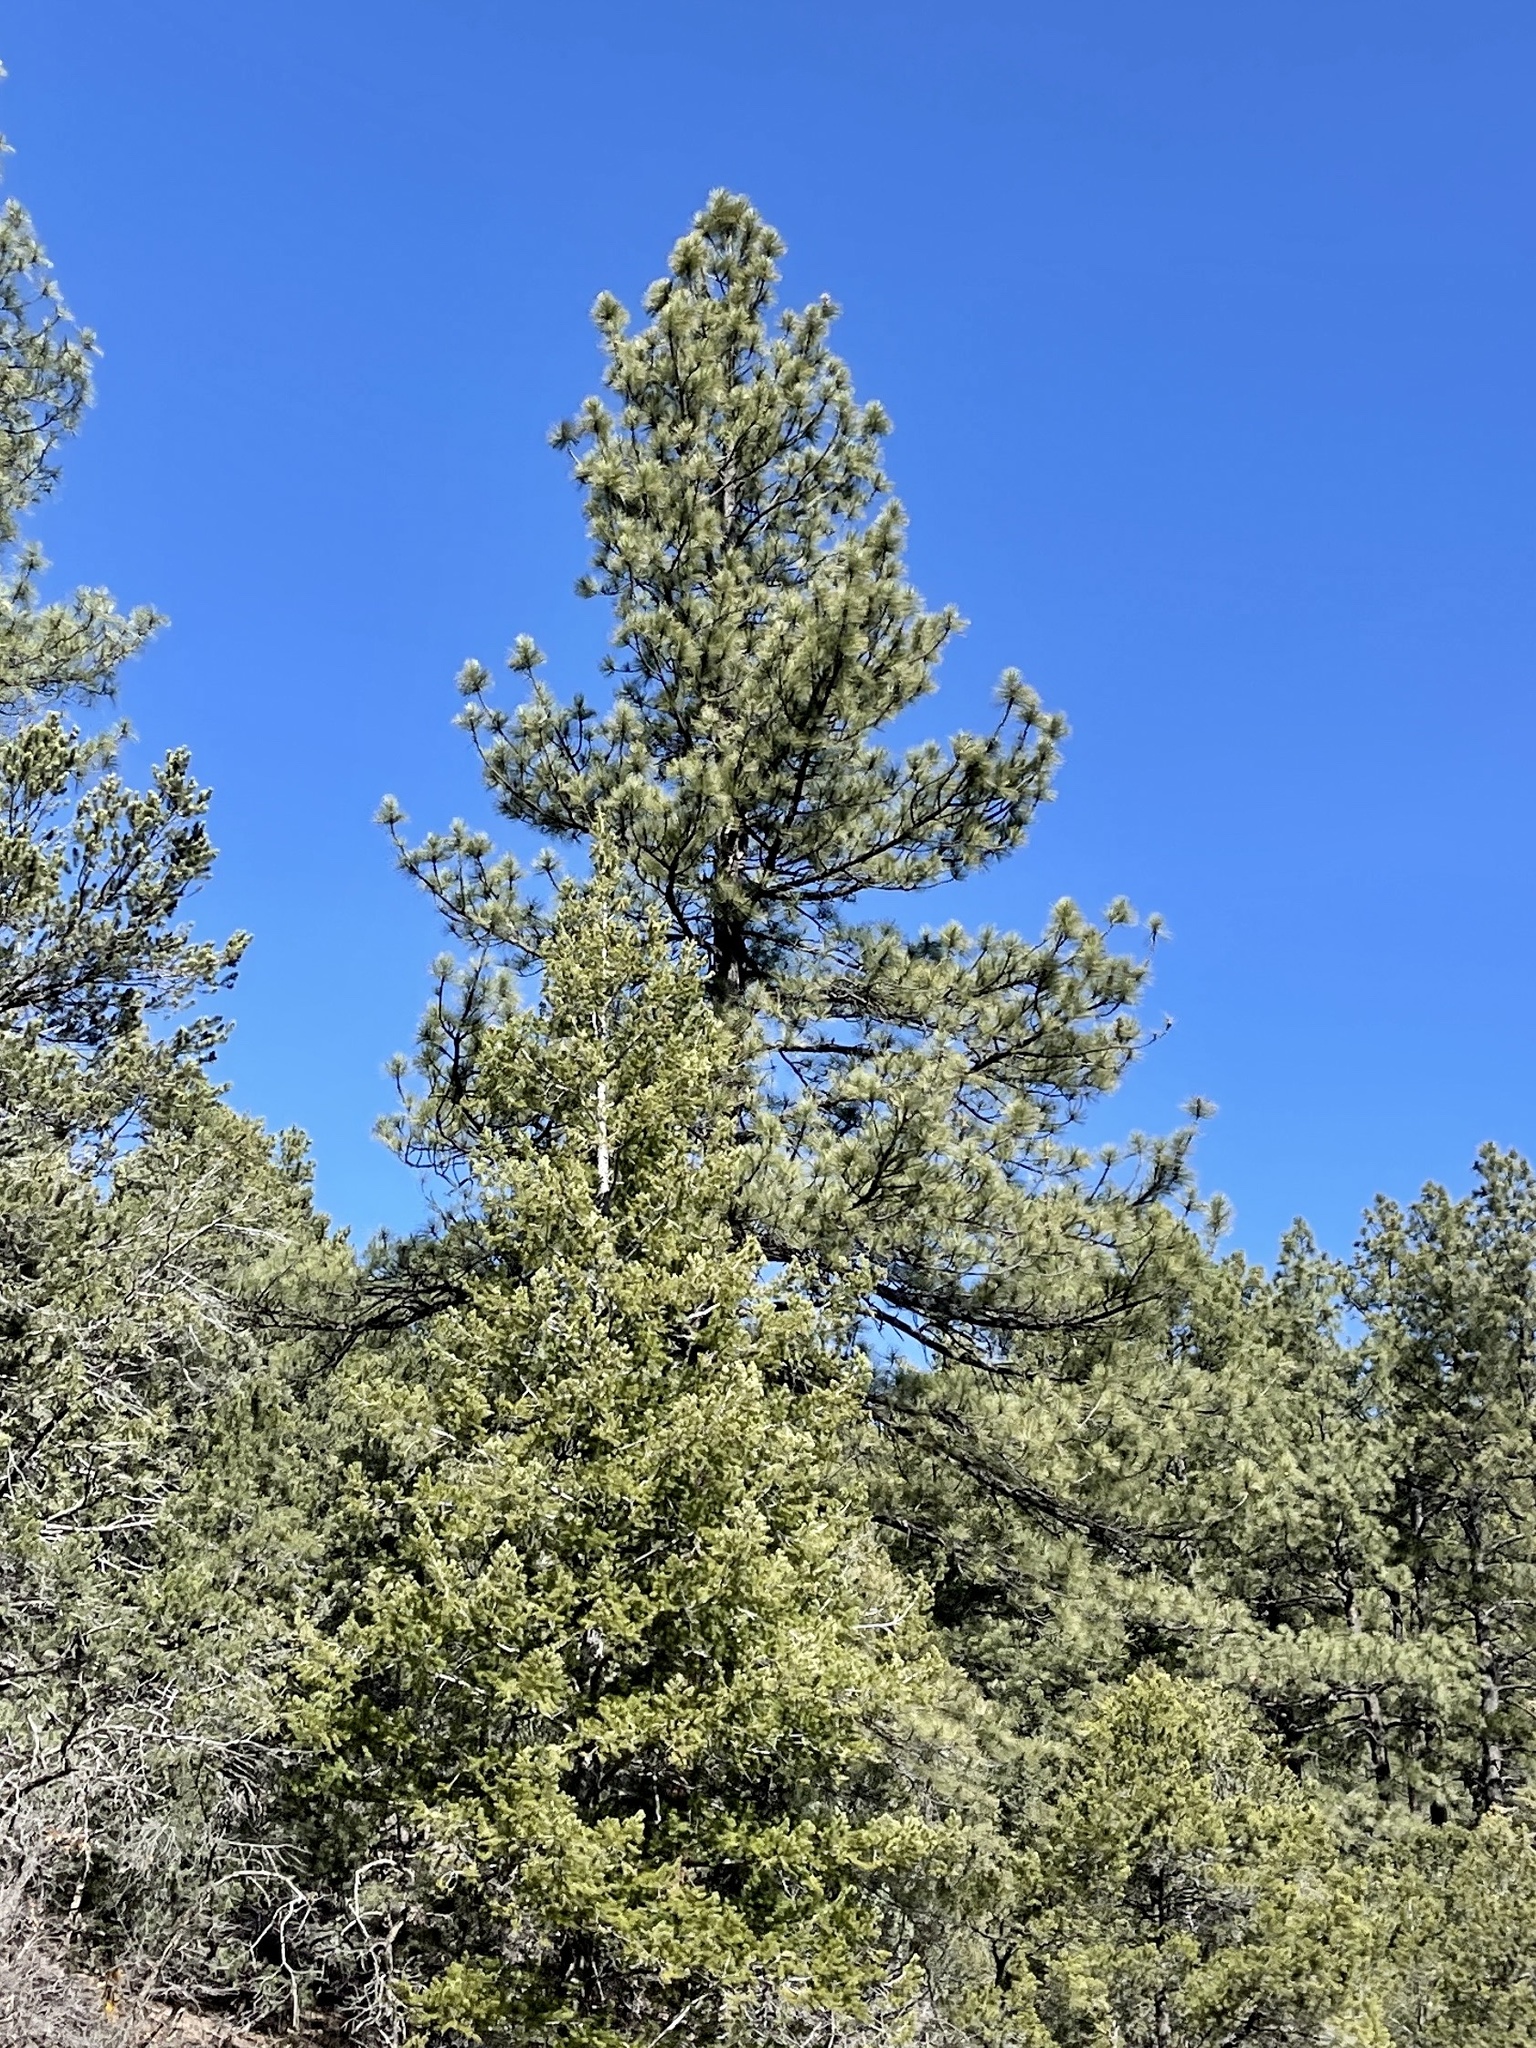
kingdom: Plantae
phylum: Tracheophyta
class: Pinopsida
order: Pinales
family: Pinaceae
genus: Pinus
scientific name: Pinus ponderosa
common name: Western yellow-pine
